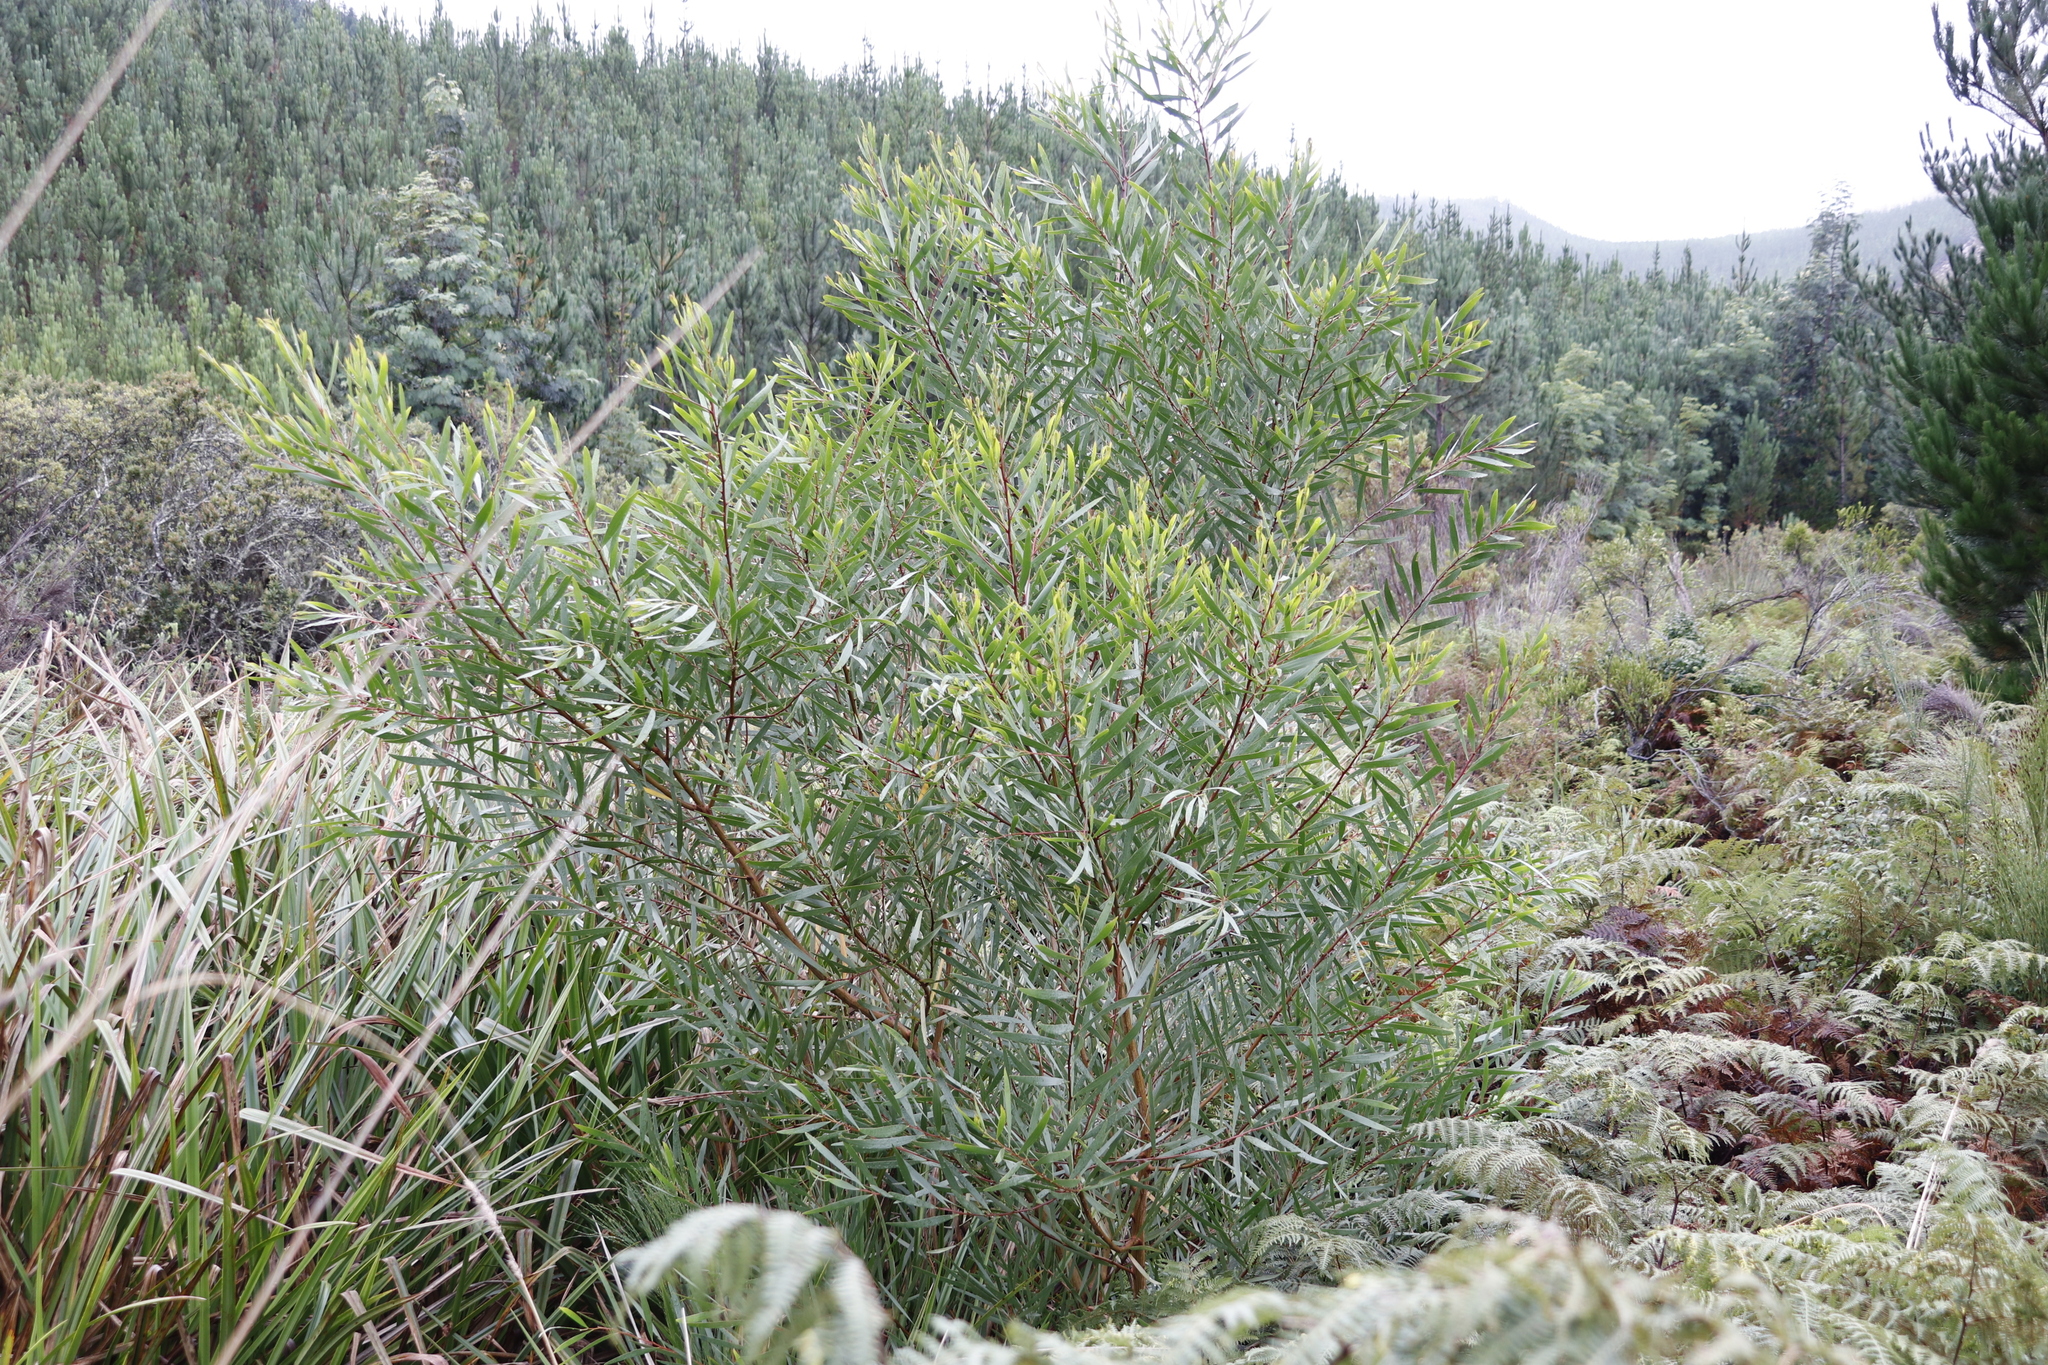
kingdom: Plantae
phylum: Tracheophyta
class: Magnoliopsida
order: Fabales
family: Fabaceae
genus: Acacia
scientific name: Acacia longifolia
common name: Sydney golden wattle
